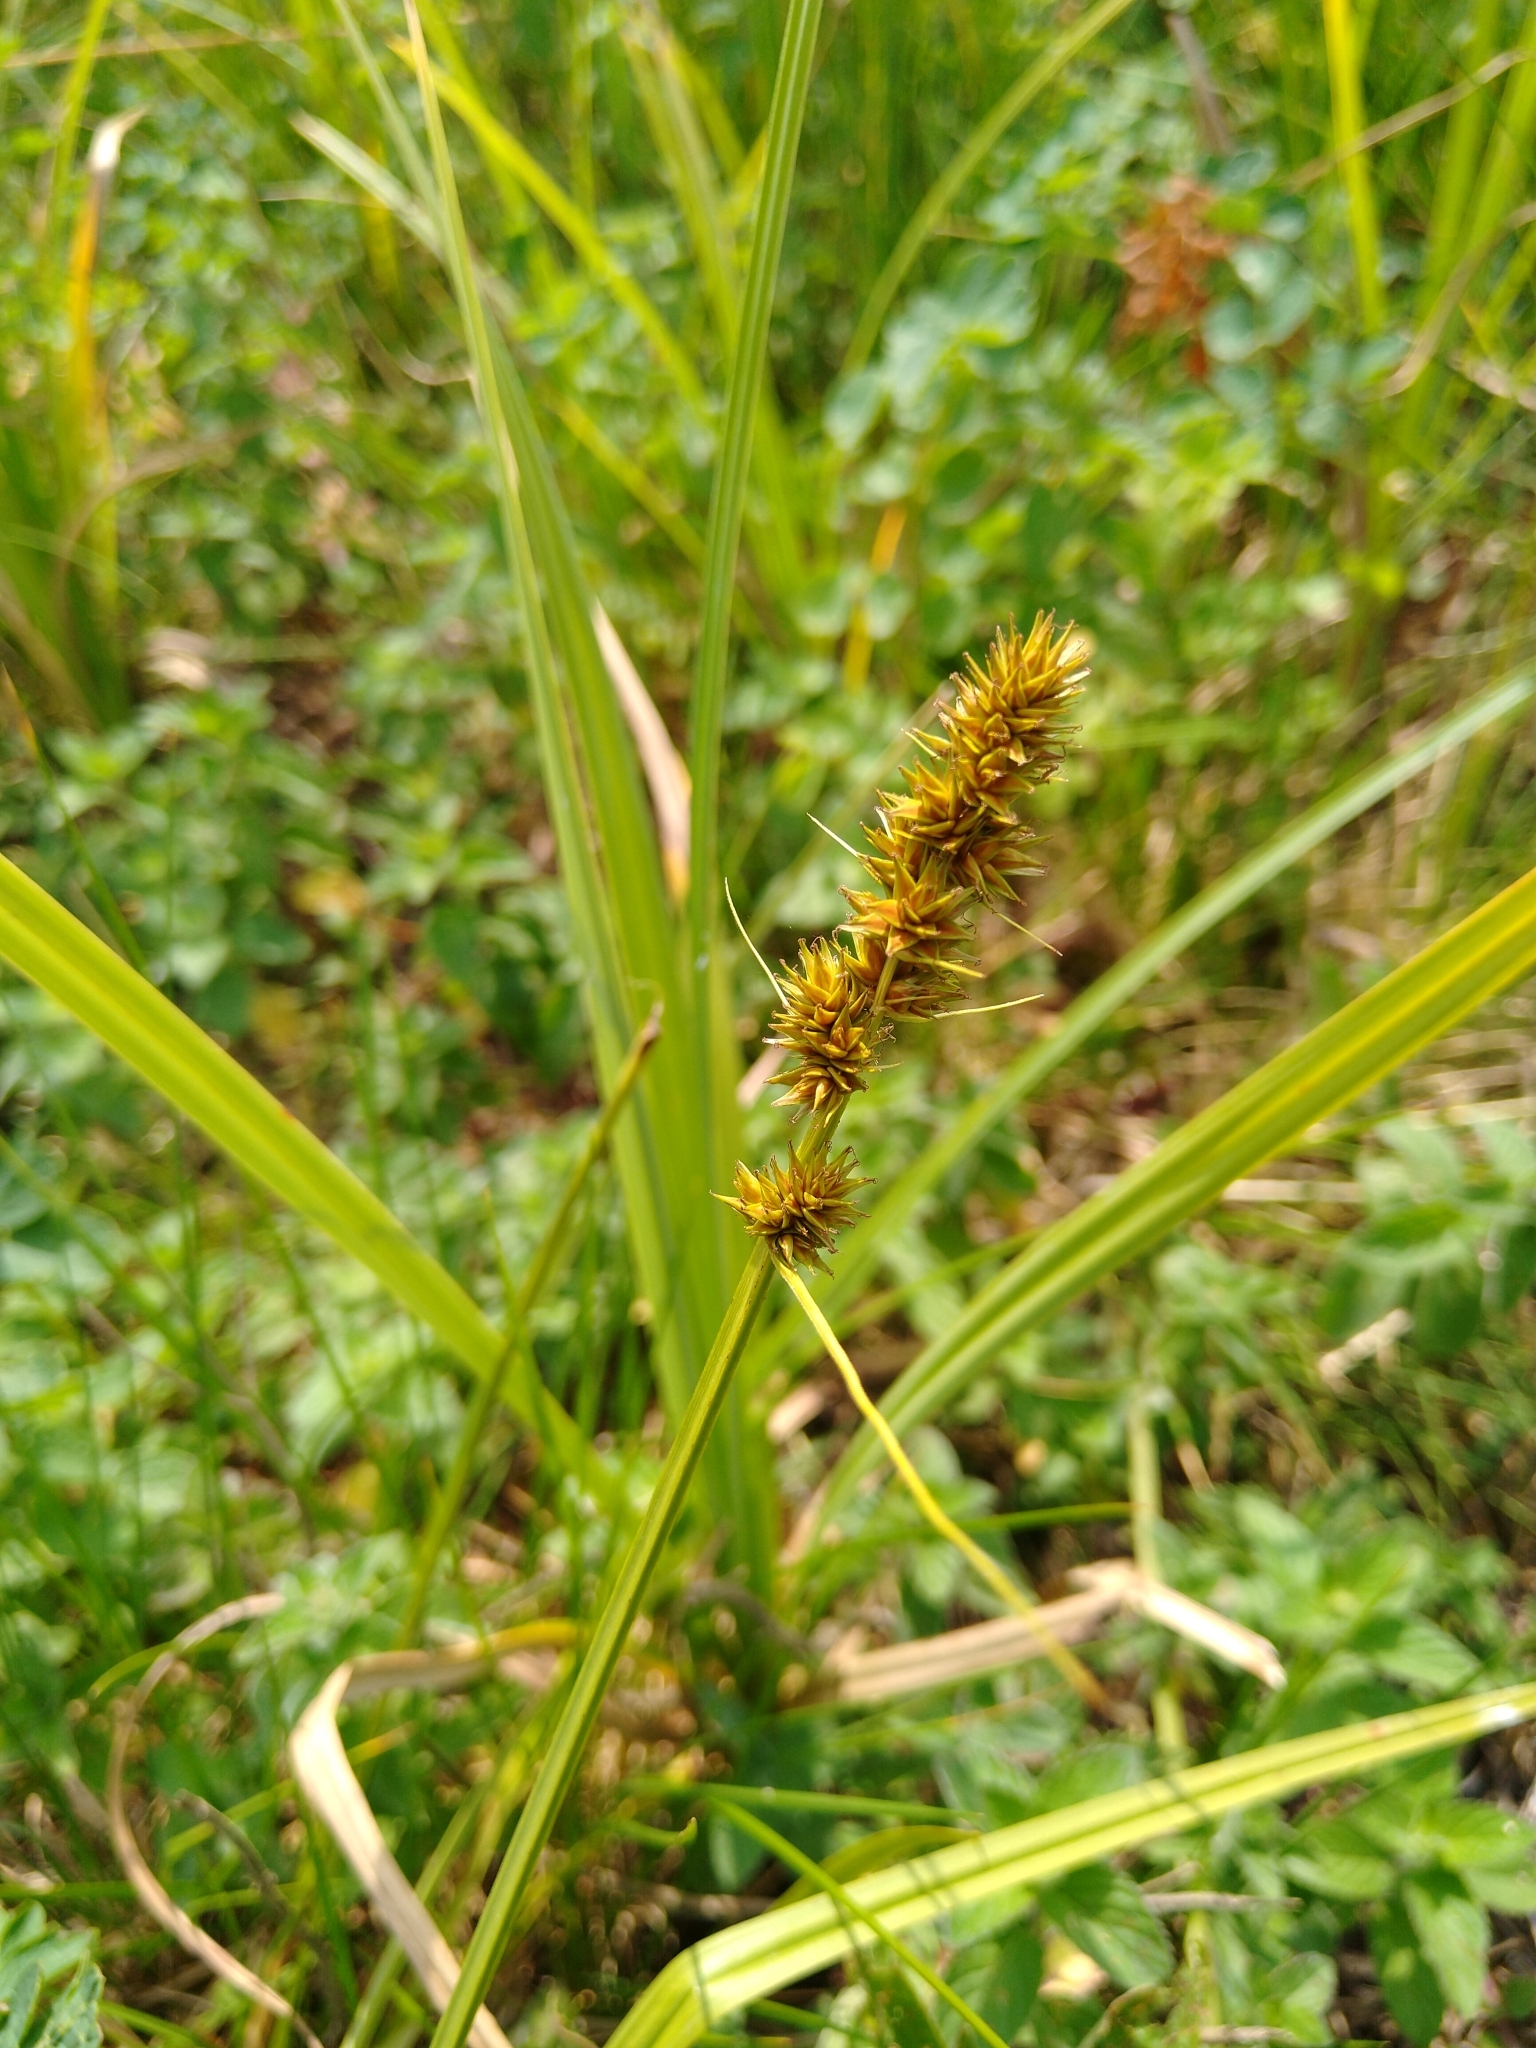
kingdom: Plantae
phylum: Tracheophyta
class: Liliopsida
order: Poales
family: Cyperaceae
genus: Carex
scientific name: Carex otrubae
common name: False fox-sedge
